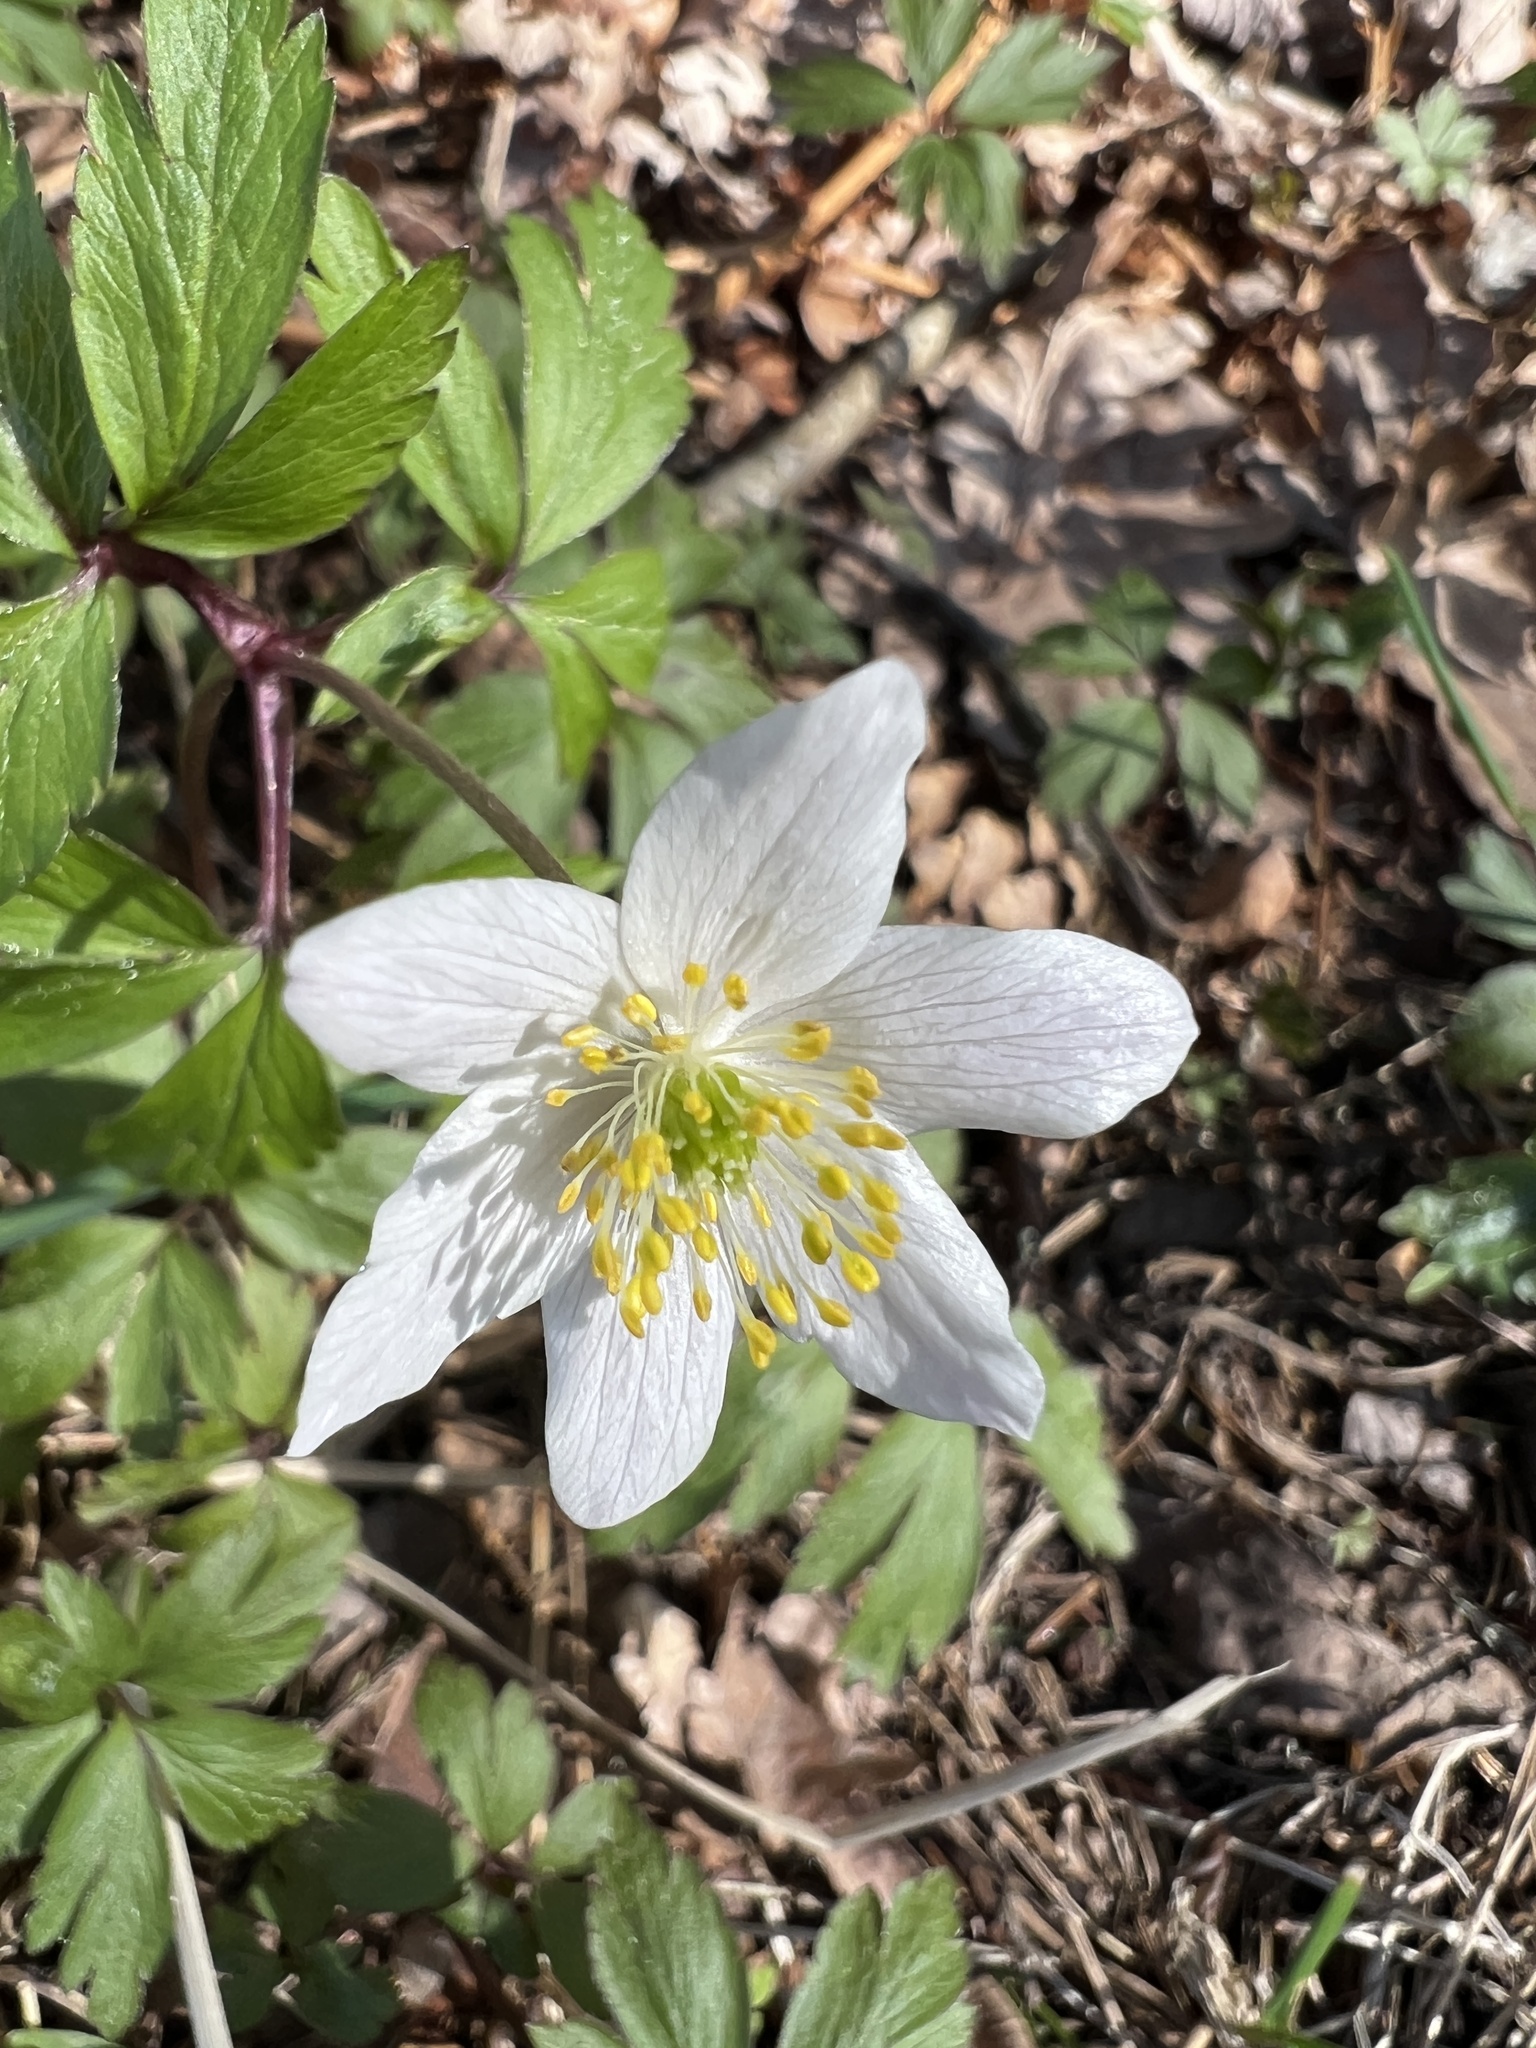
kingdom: Plantae
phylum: Tracheophyta
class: Magnoliopsida
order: Ranunculales
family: Ranunculaceae
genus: Anemone
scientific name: Anemone nemorosa
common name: Wood anemone
